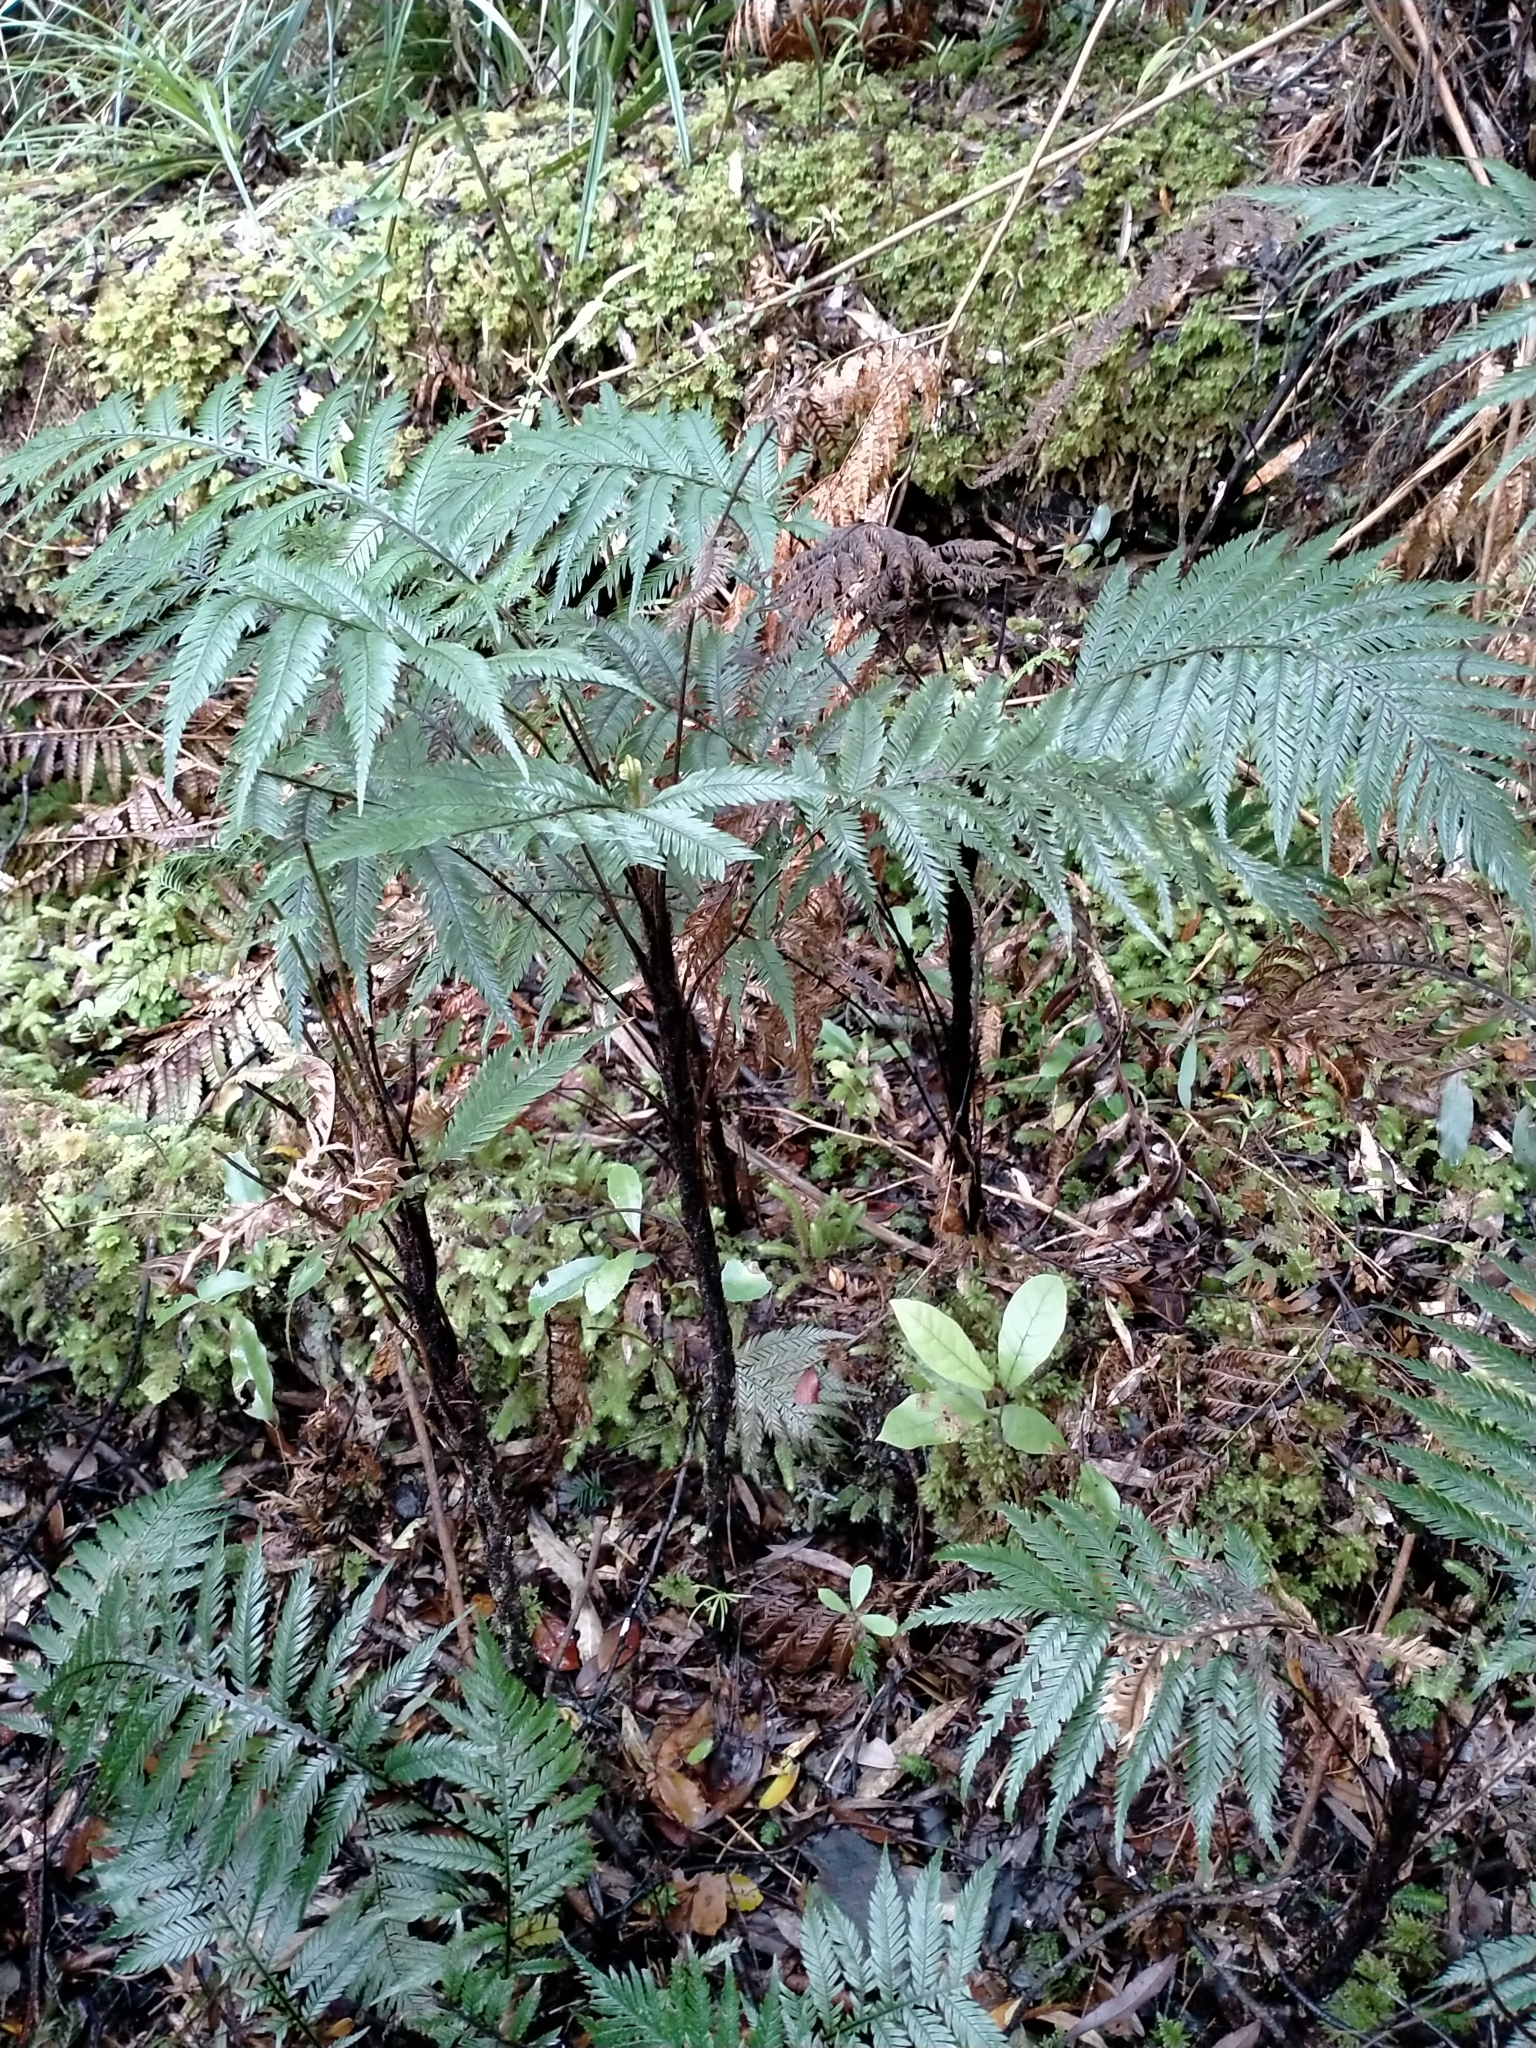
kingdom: Plantae
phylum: Tracheophyta
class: Polypodiopsida
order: Polypodiales
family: Blechnaceae
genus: Diploblechnum
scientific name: Diploblechnum fraseri
